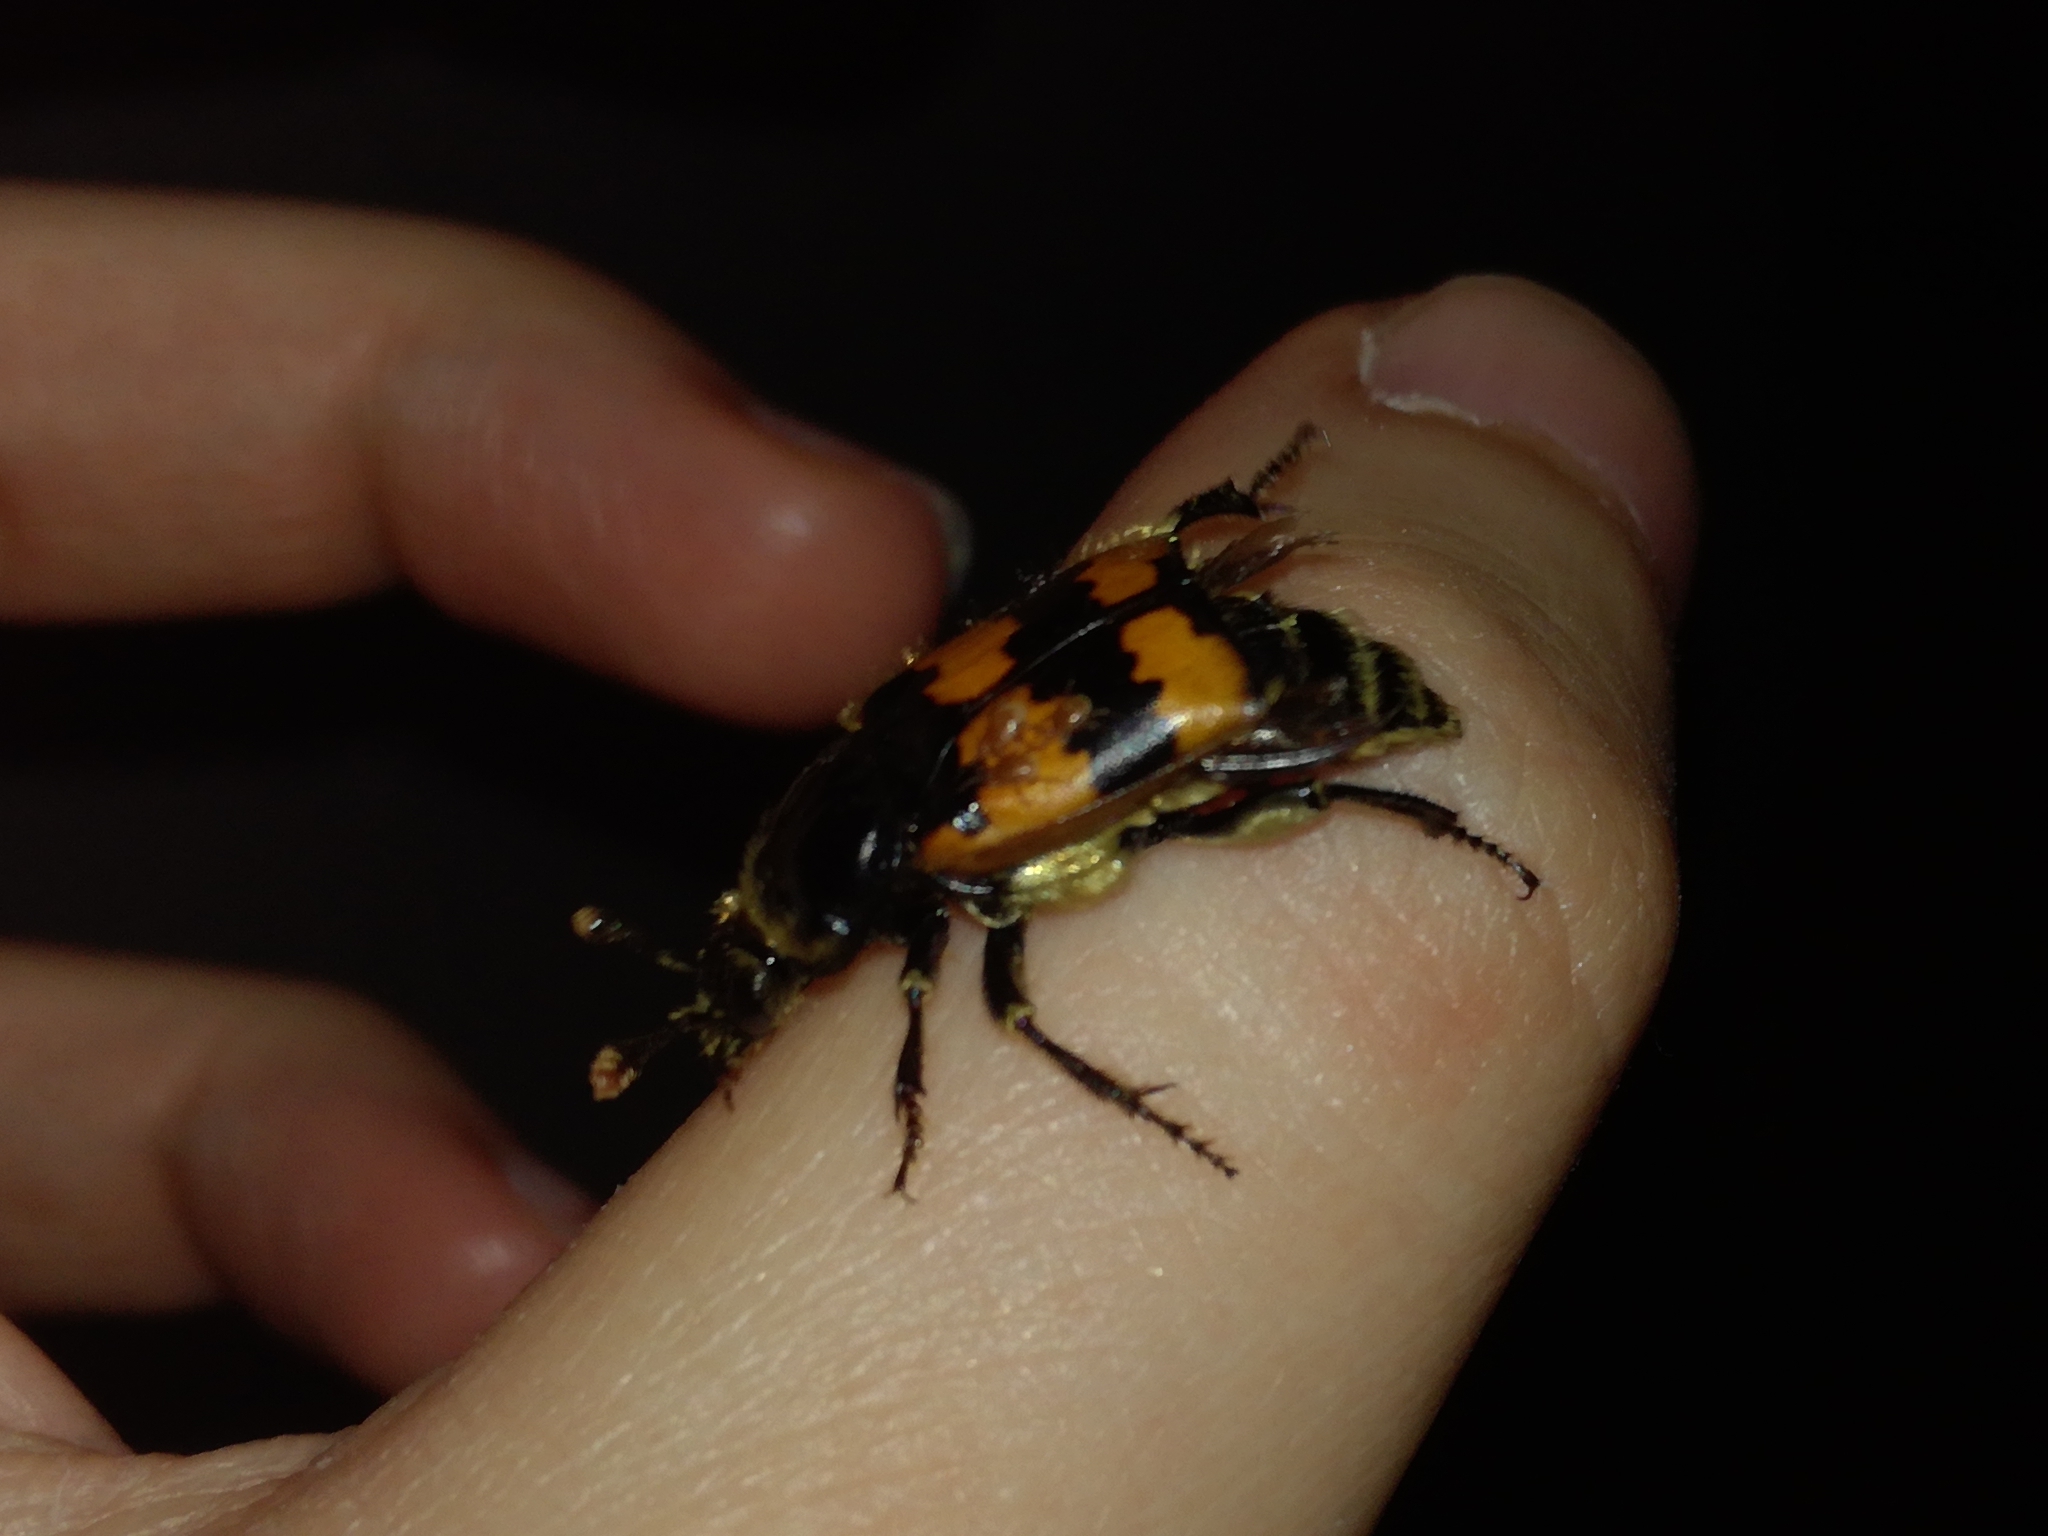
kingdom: Animalia
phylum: Arthropoda
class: Insecta
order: Coleoptera
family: Staphylinidae
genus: Nicrophorus
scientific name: Nicrophorus vespillo
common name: Common burying beetle
